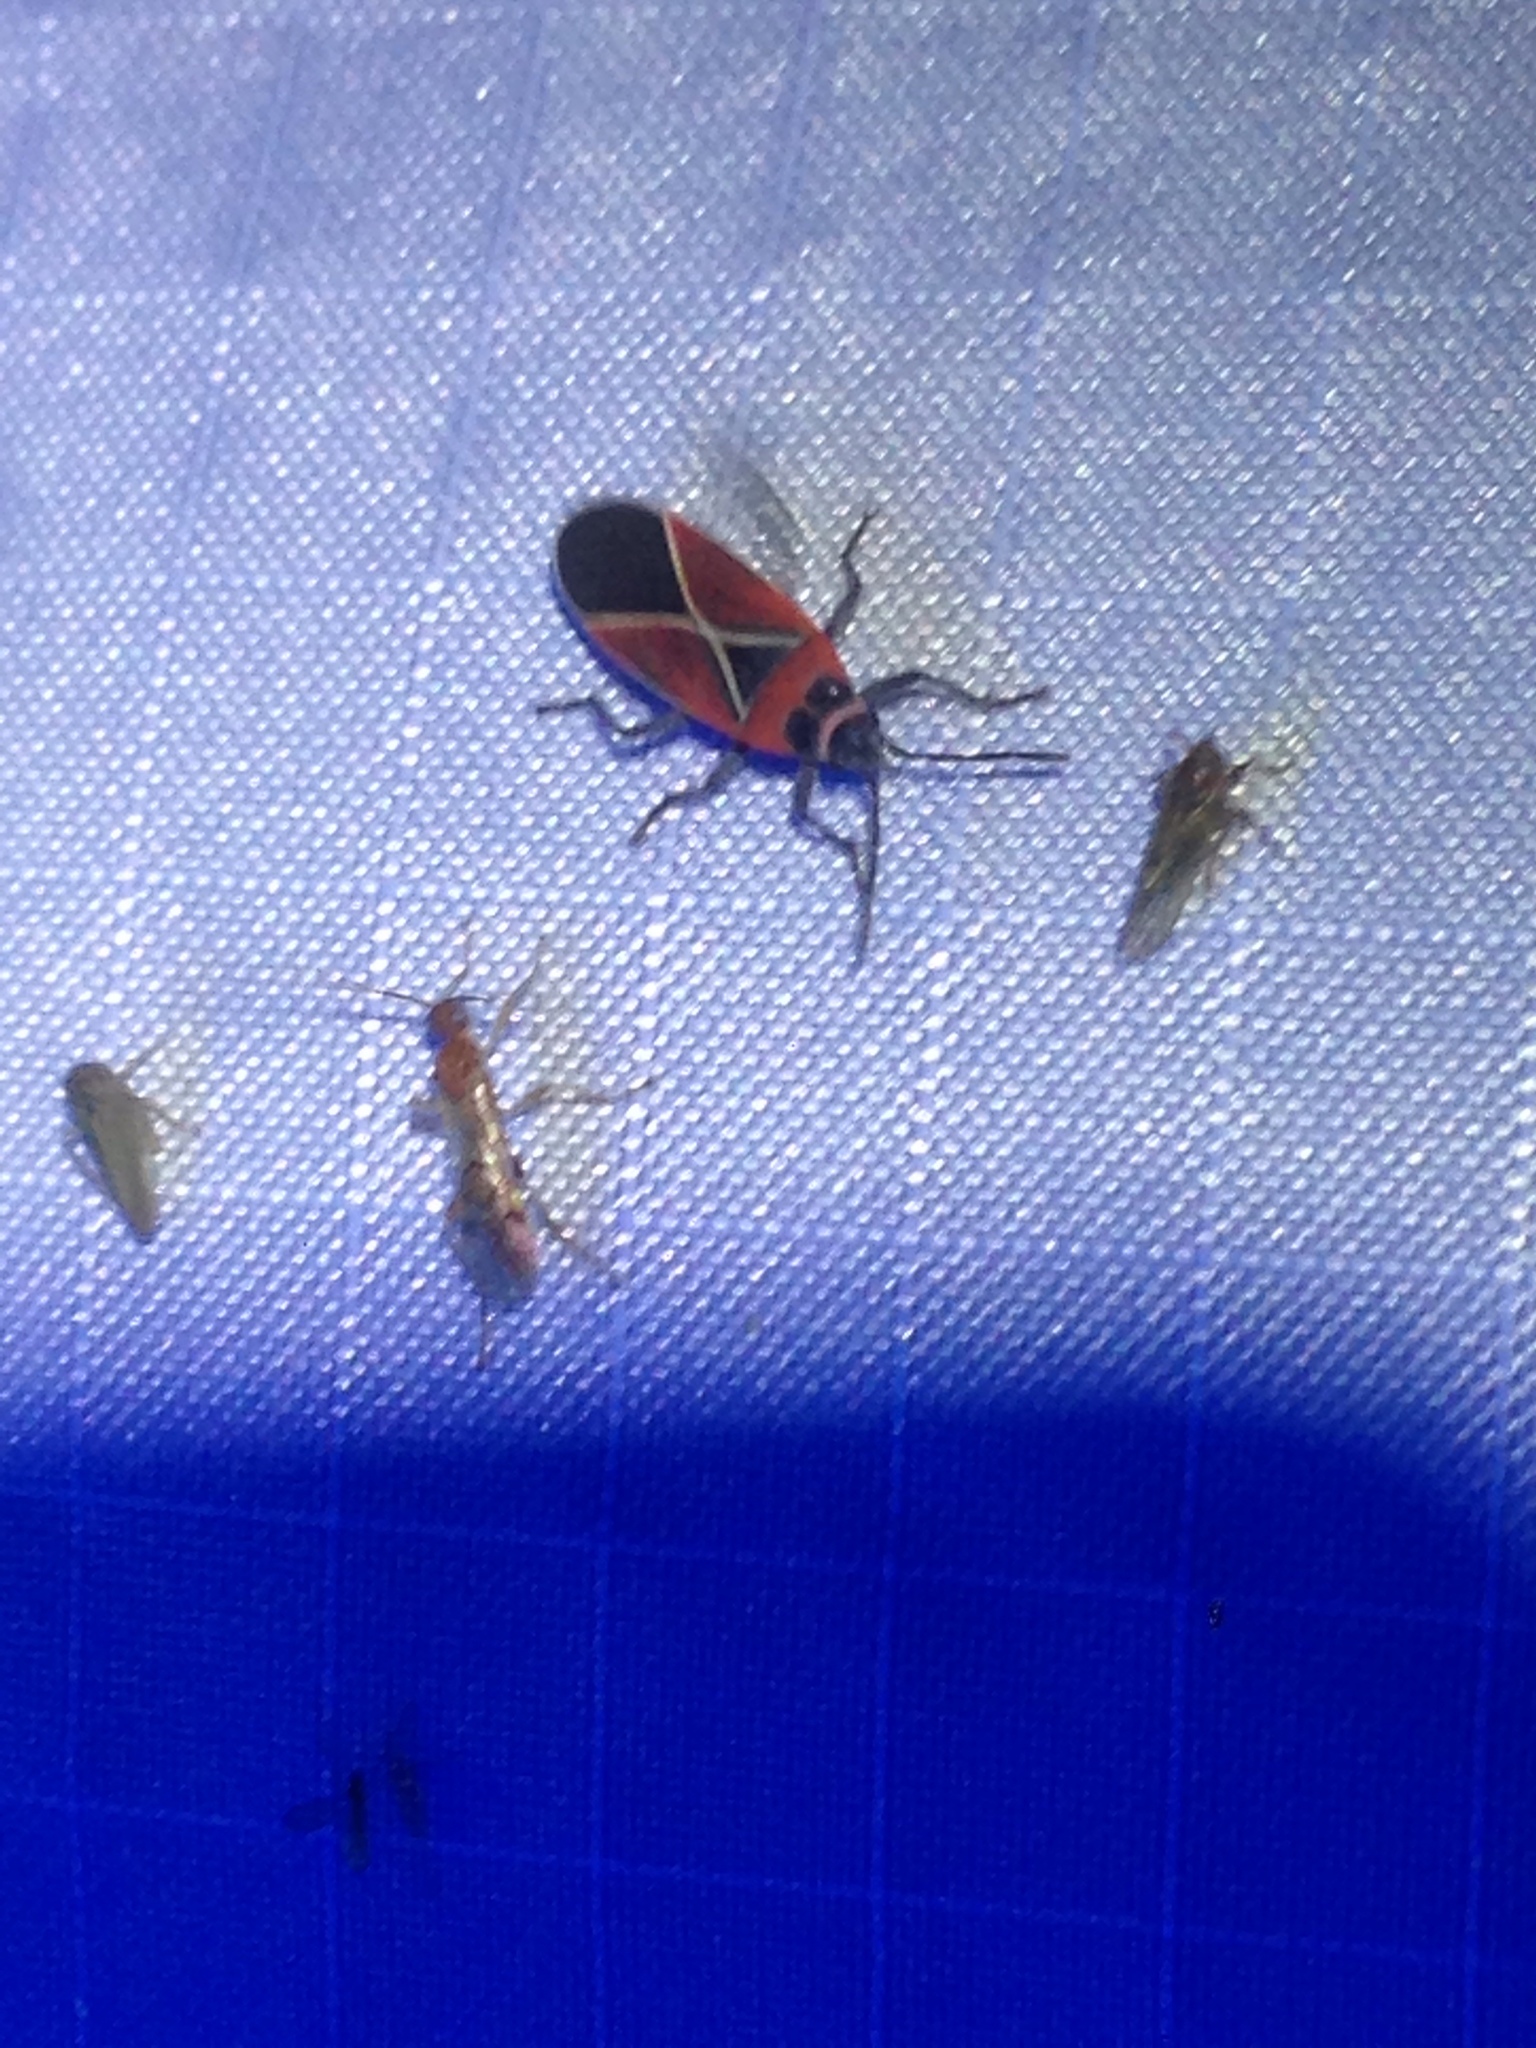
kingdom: Animalia
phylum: Arthropoda
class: Insecta
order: Hemiptera
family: Lygaeidae
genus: Neacoryphus
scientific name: Neacoryphus bicrucis
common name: Lygaeid bug
